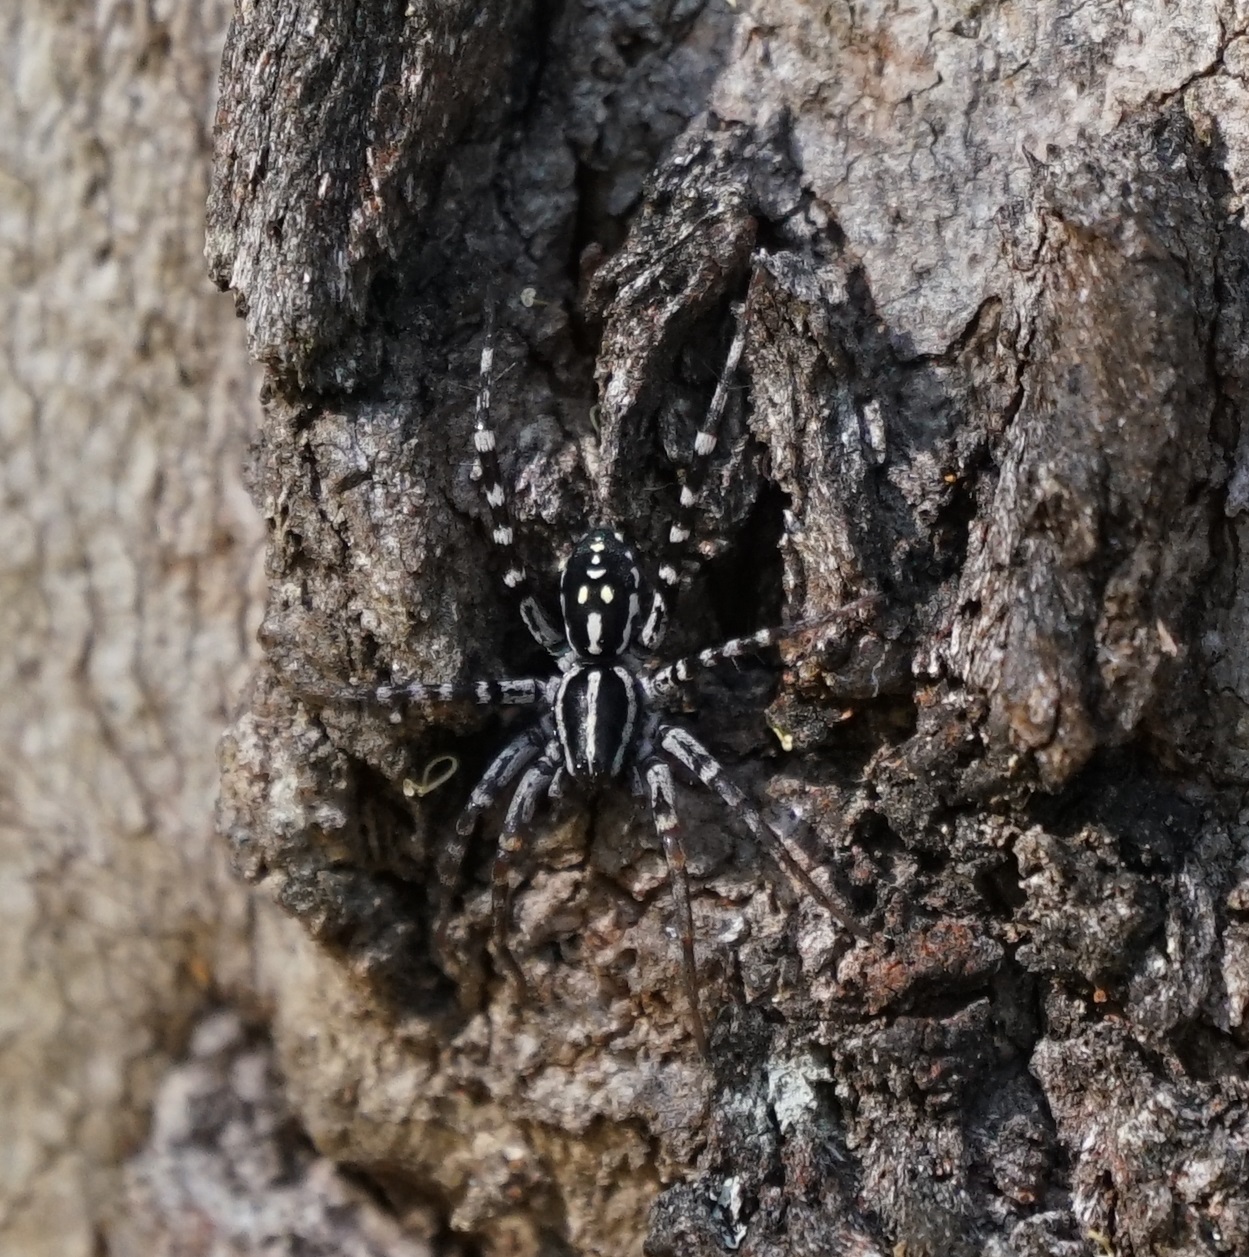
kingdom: Animalia
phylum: Arthropoda
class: Arachnida
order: Araneae
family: Corinnidae
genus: Nyssus
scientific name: Nyssus coloripes
